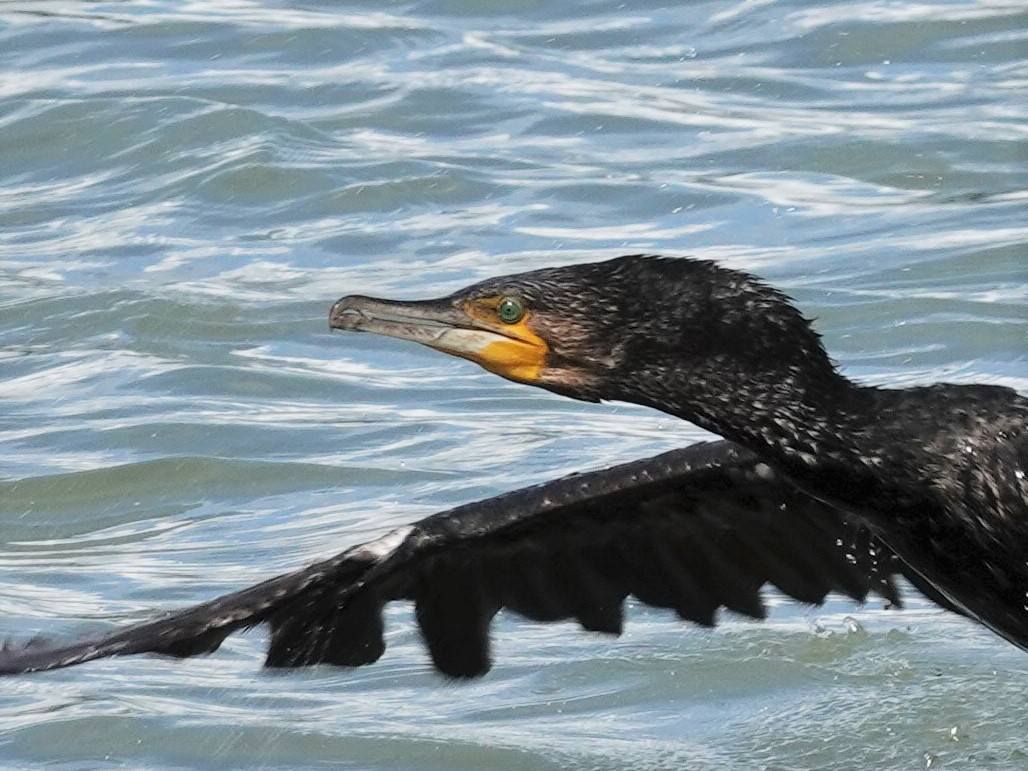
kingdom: Animalia
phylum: Chordata
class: Aves
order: Suliformes
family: Phalacrocoracidae
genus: Phalacrocorax
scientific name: Phalacrocorax carbo
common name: Great cormorant
